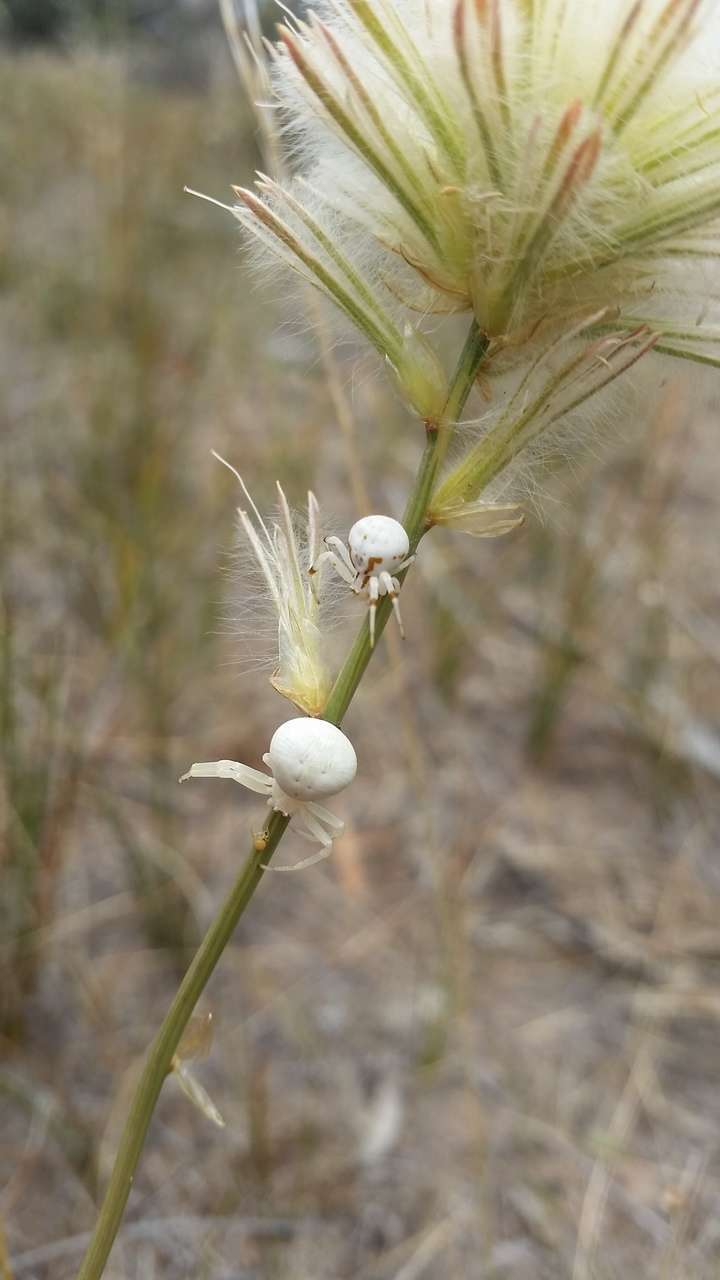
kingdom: Plantae
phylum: Tracheophyta
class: Magnoliopsida
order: Caryophyllales
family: Amaranthaceae
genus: Ptilotus
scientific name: Ptilotus macrocephalus
